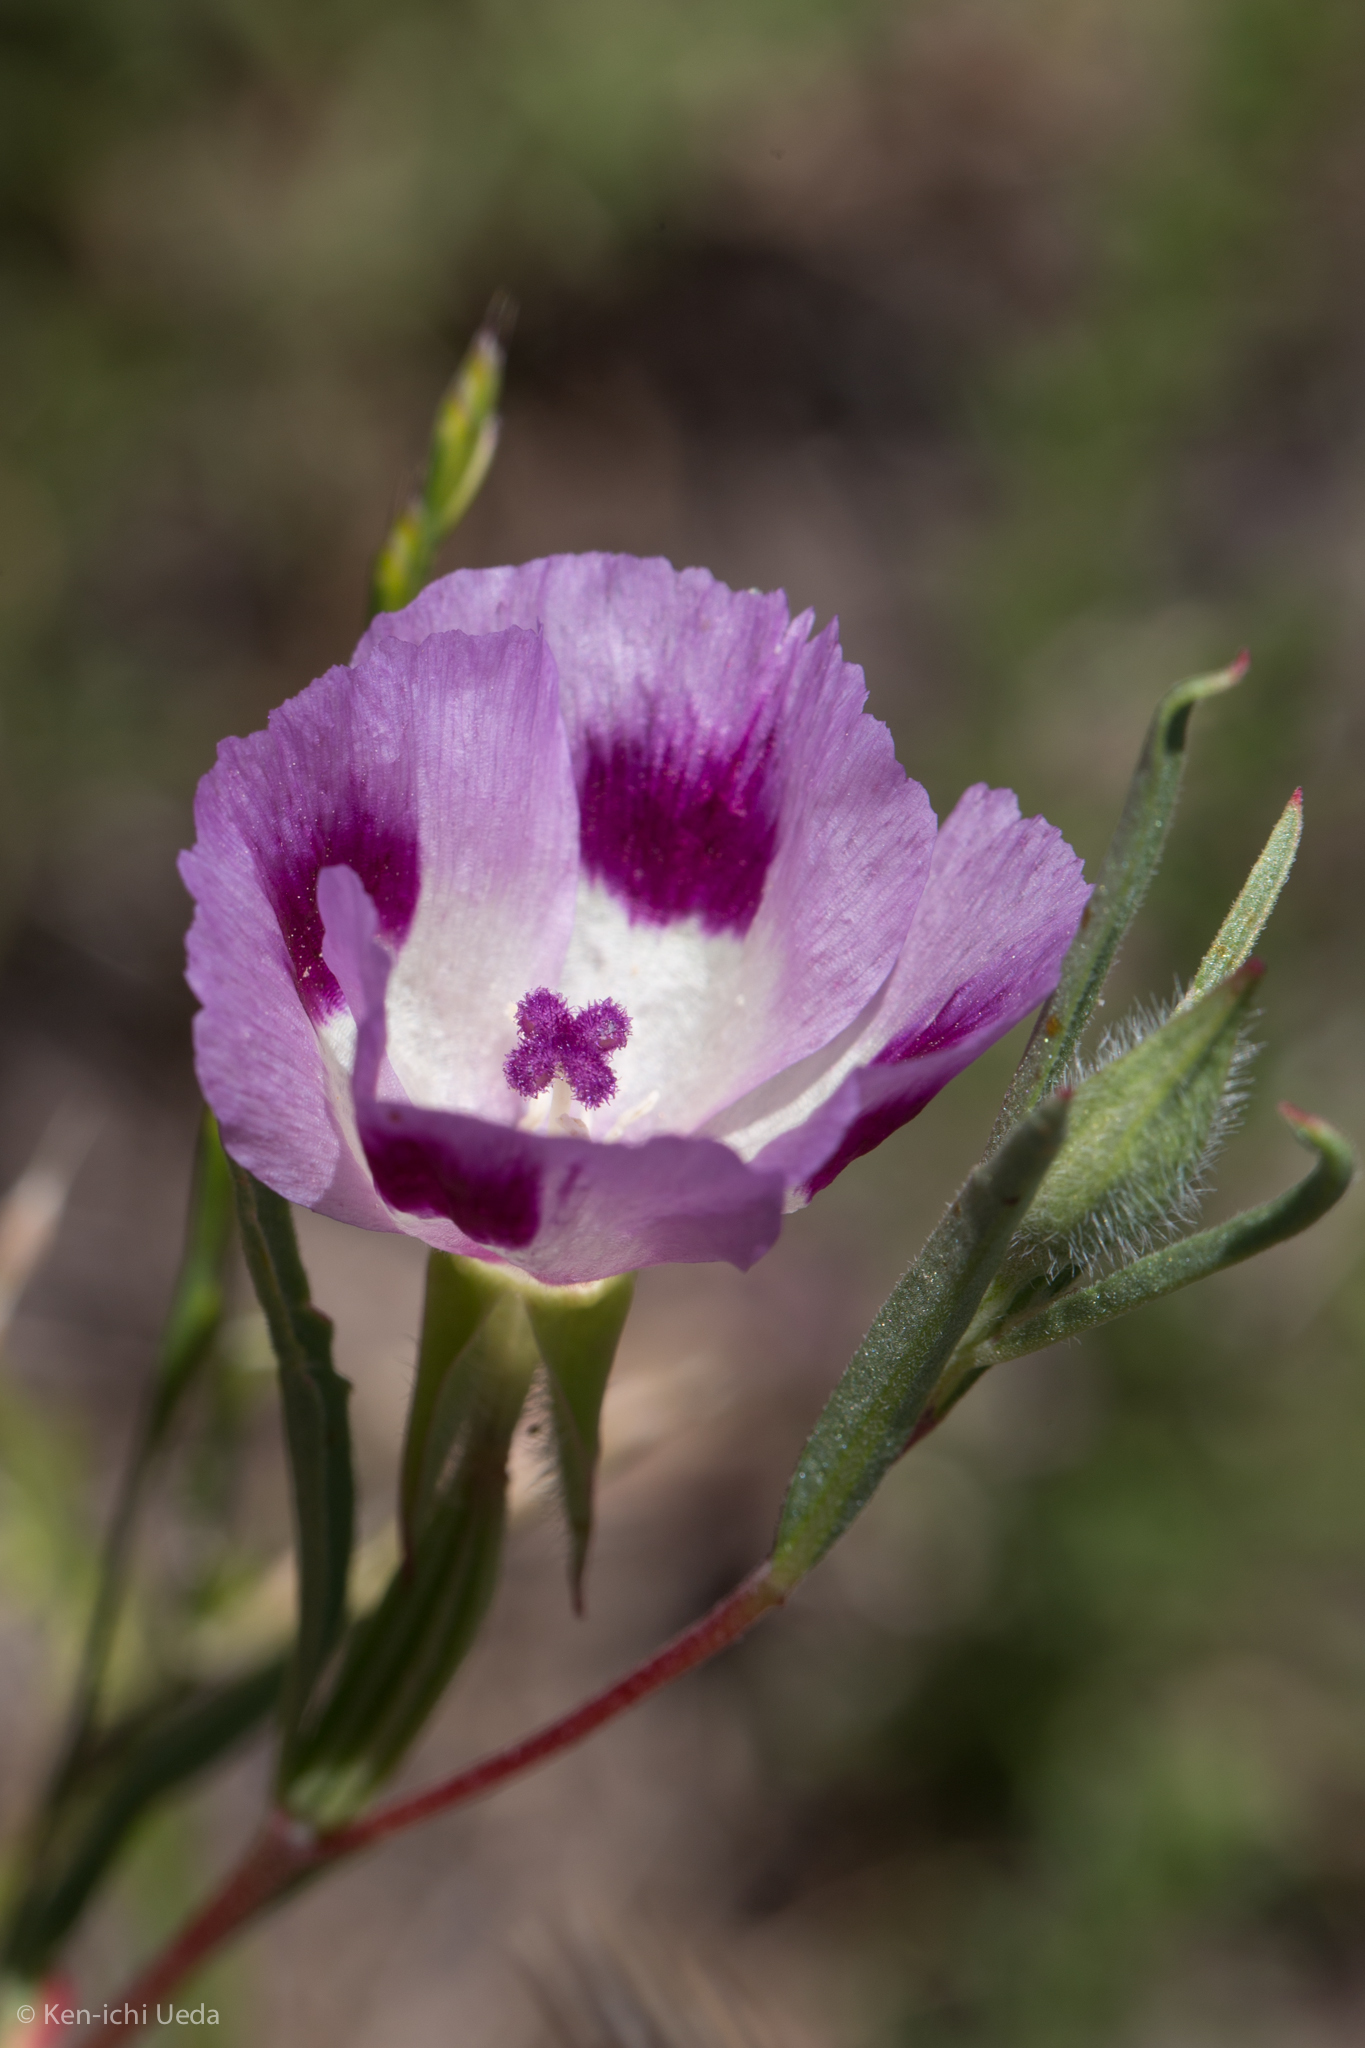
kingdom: Plantae
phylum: Tracheophyta
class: Magnoliopsida
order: Myrtales
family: Onagraceae
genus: Clarkia
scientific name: Clarkia williamsonii
